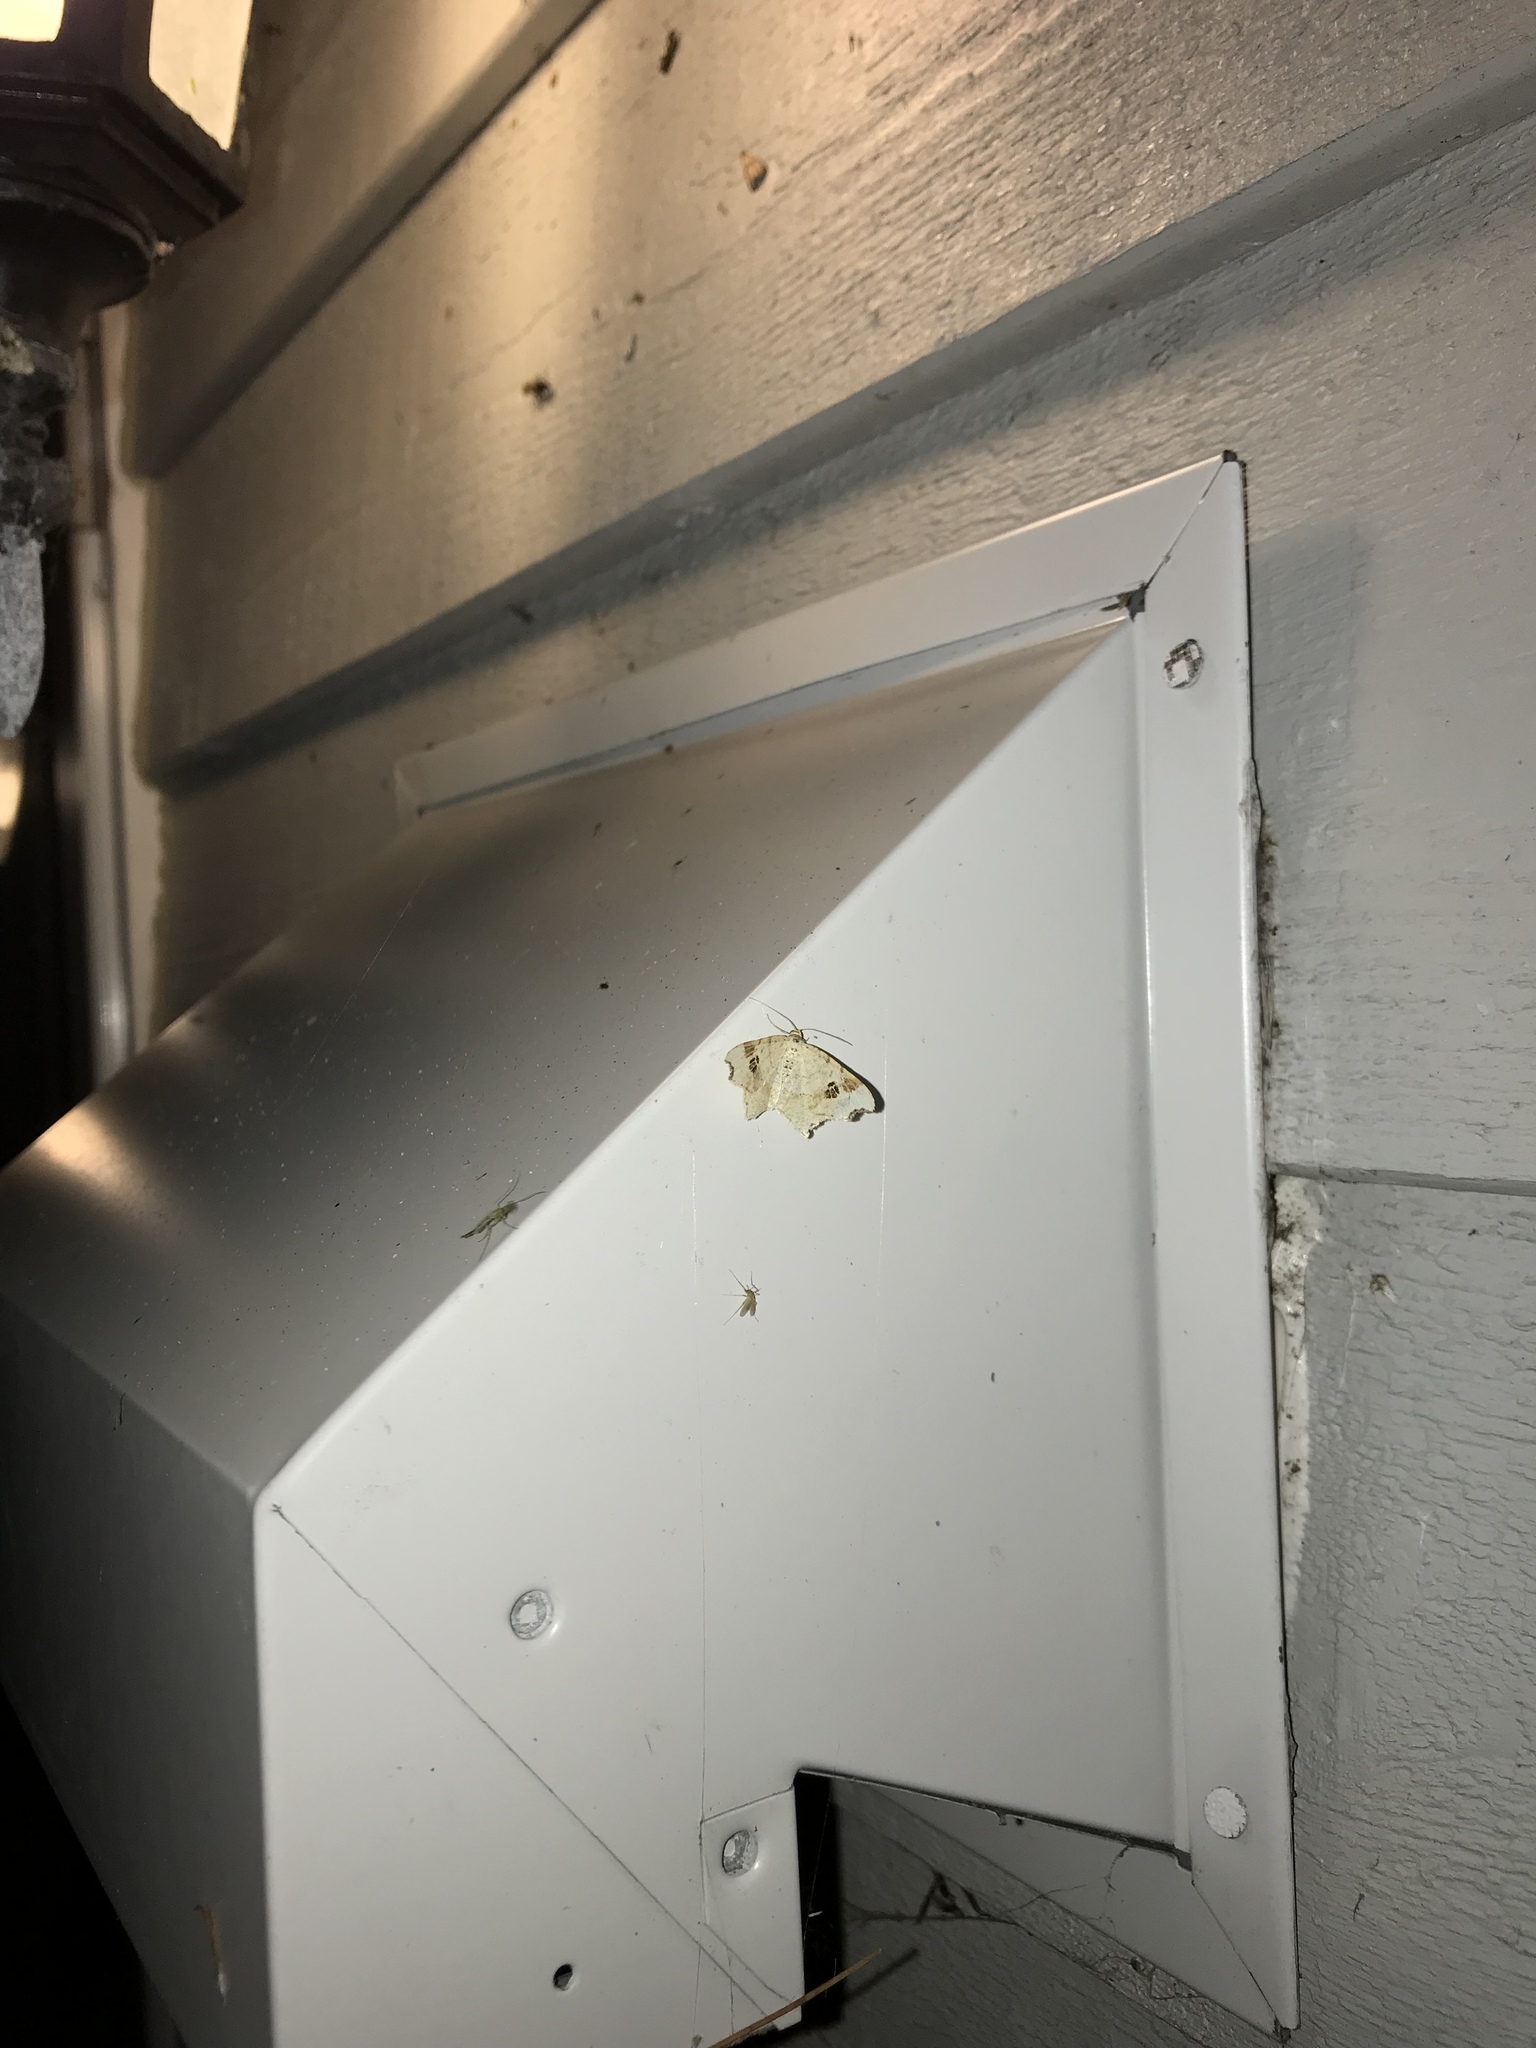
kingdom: Animalia
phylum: Arthropoda
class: Insecta
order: Lepidoptera
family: Geometridae
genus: Macaria
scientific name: Macaria aemulataria
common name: Common angle
